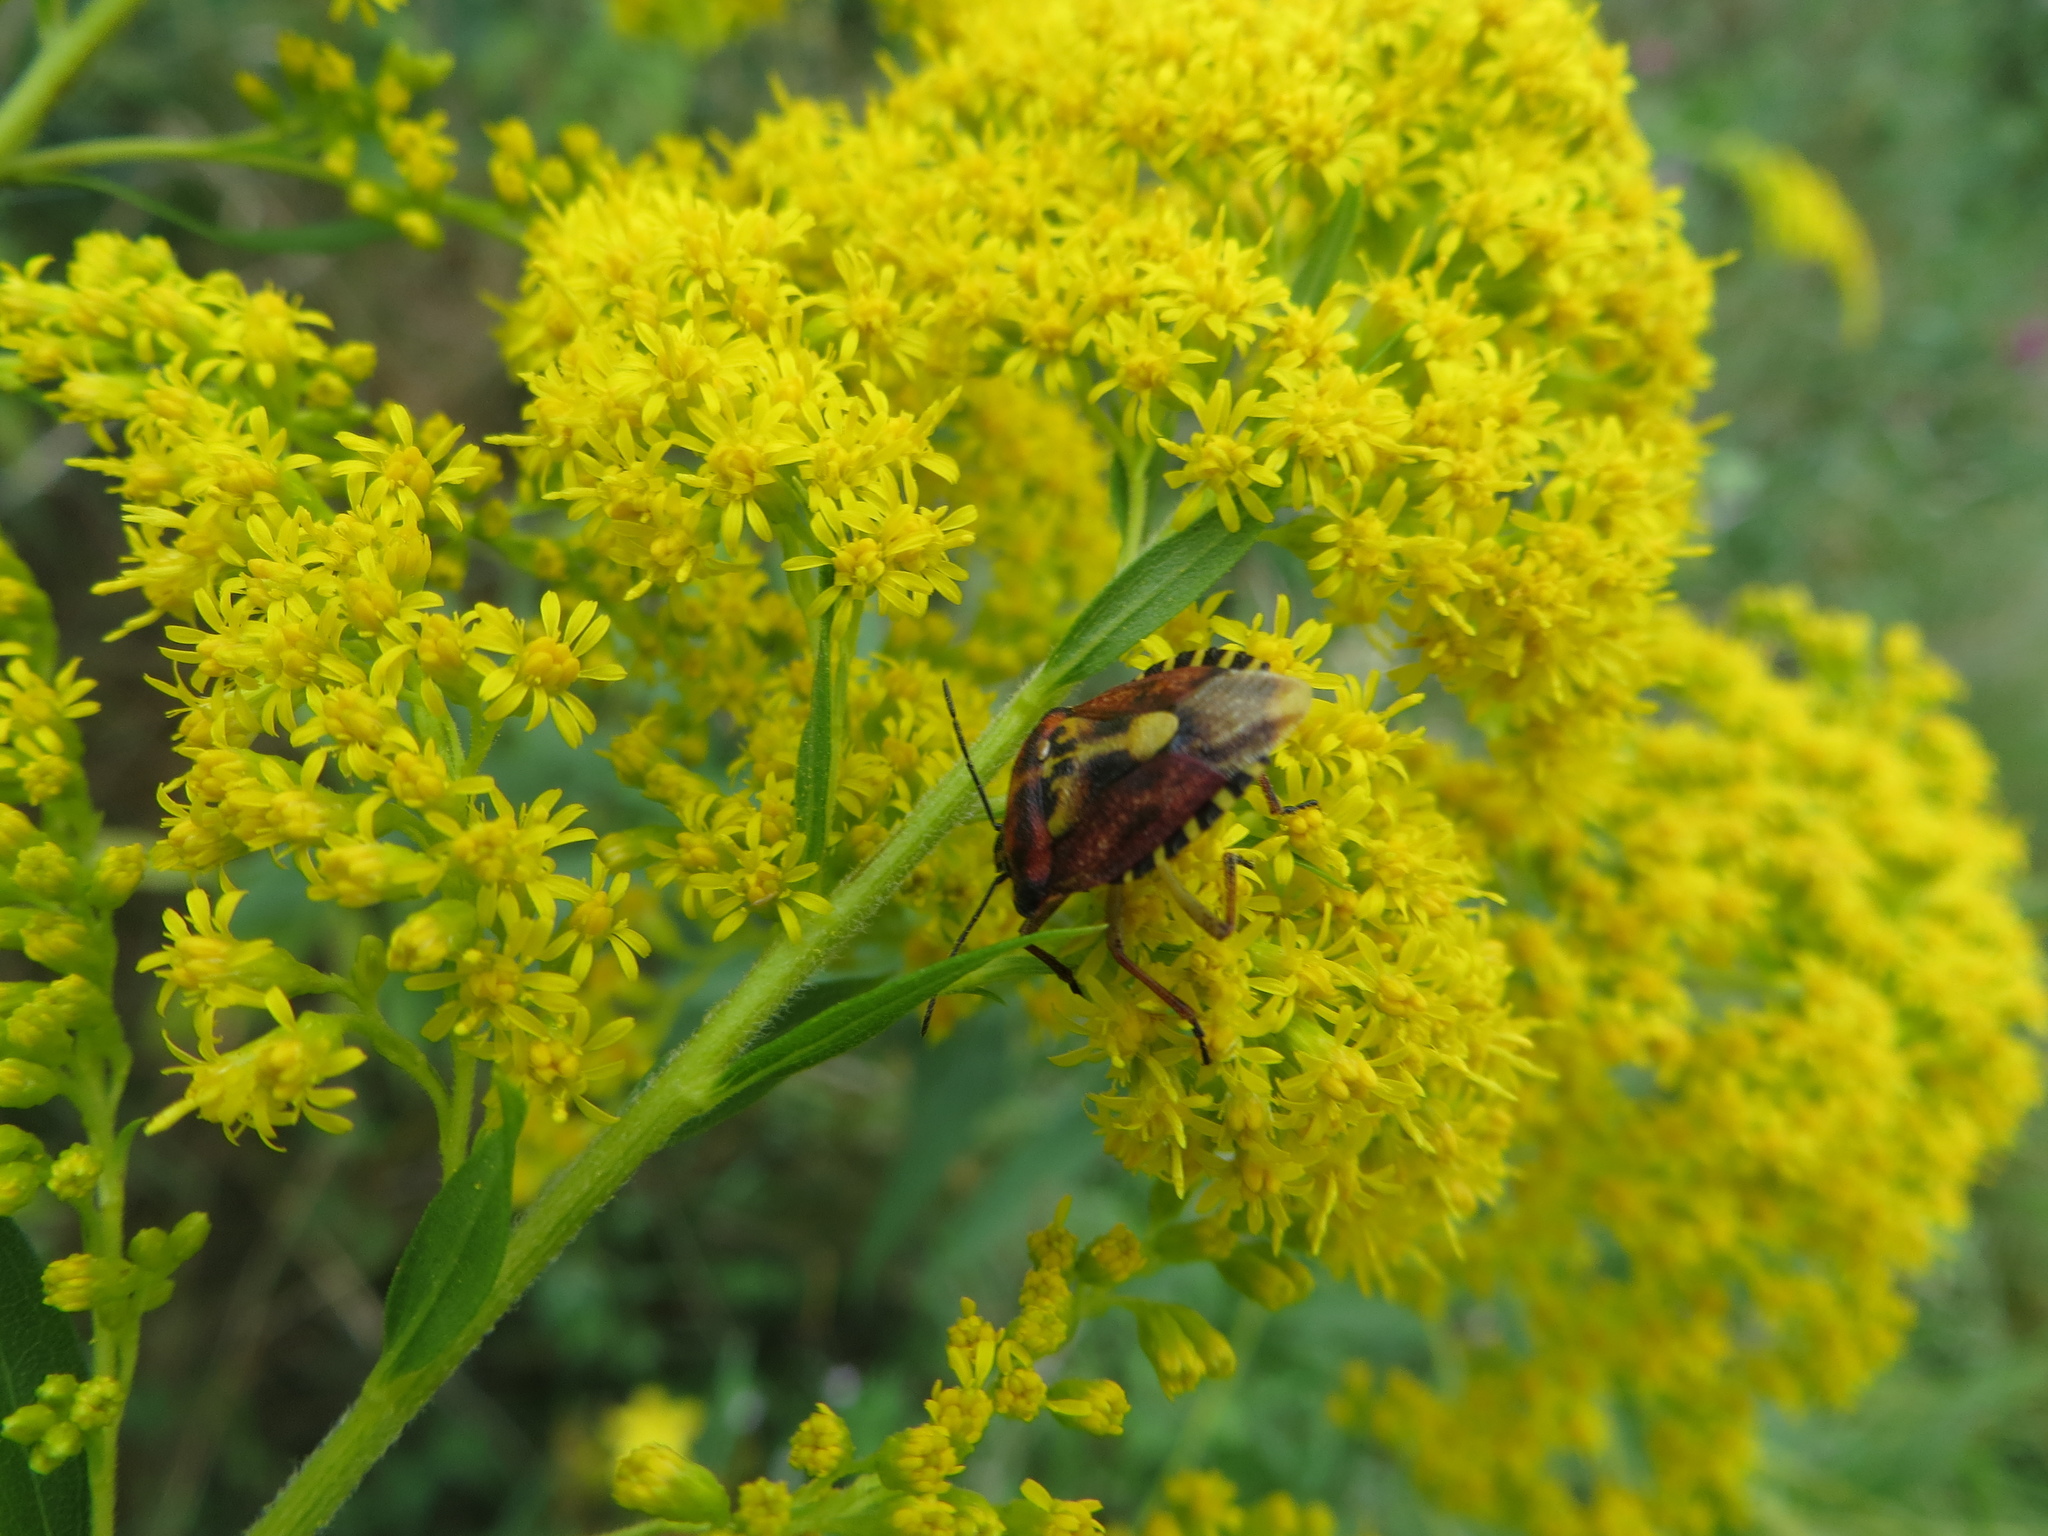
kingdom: Animalia
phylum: Arthropoda
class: Insecta
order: Hemiptera
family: Pentatomidae
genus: Carpocoris
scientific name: Carpocoris purpureipennis
